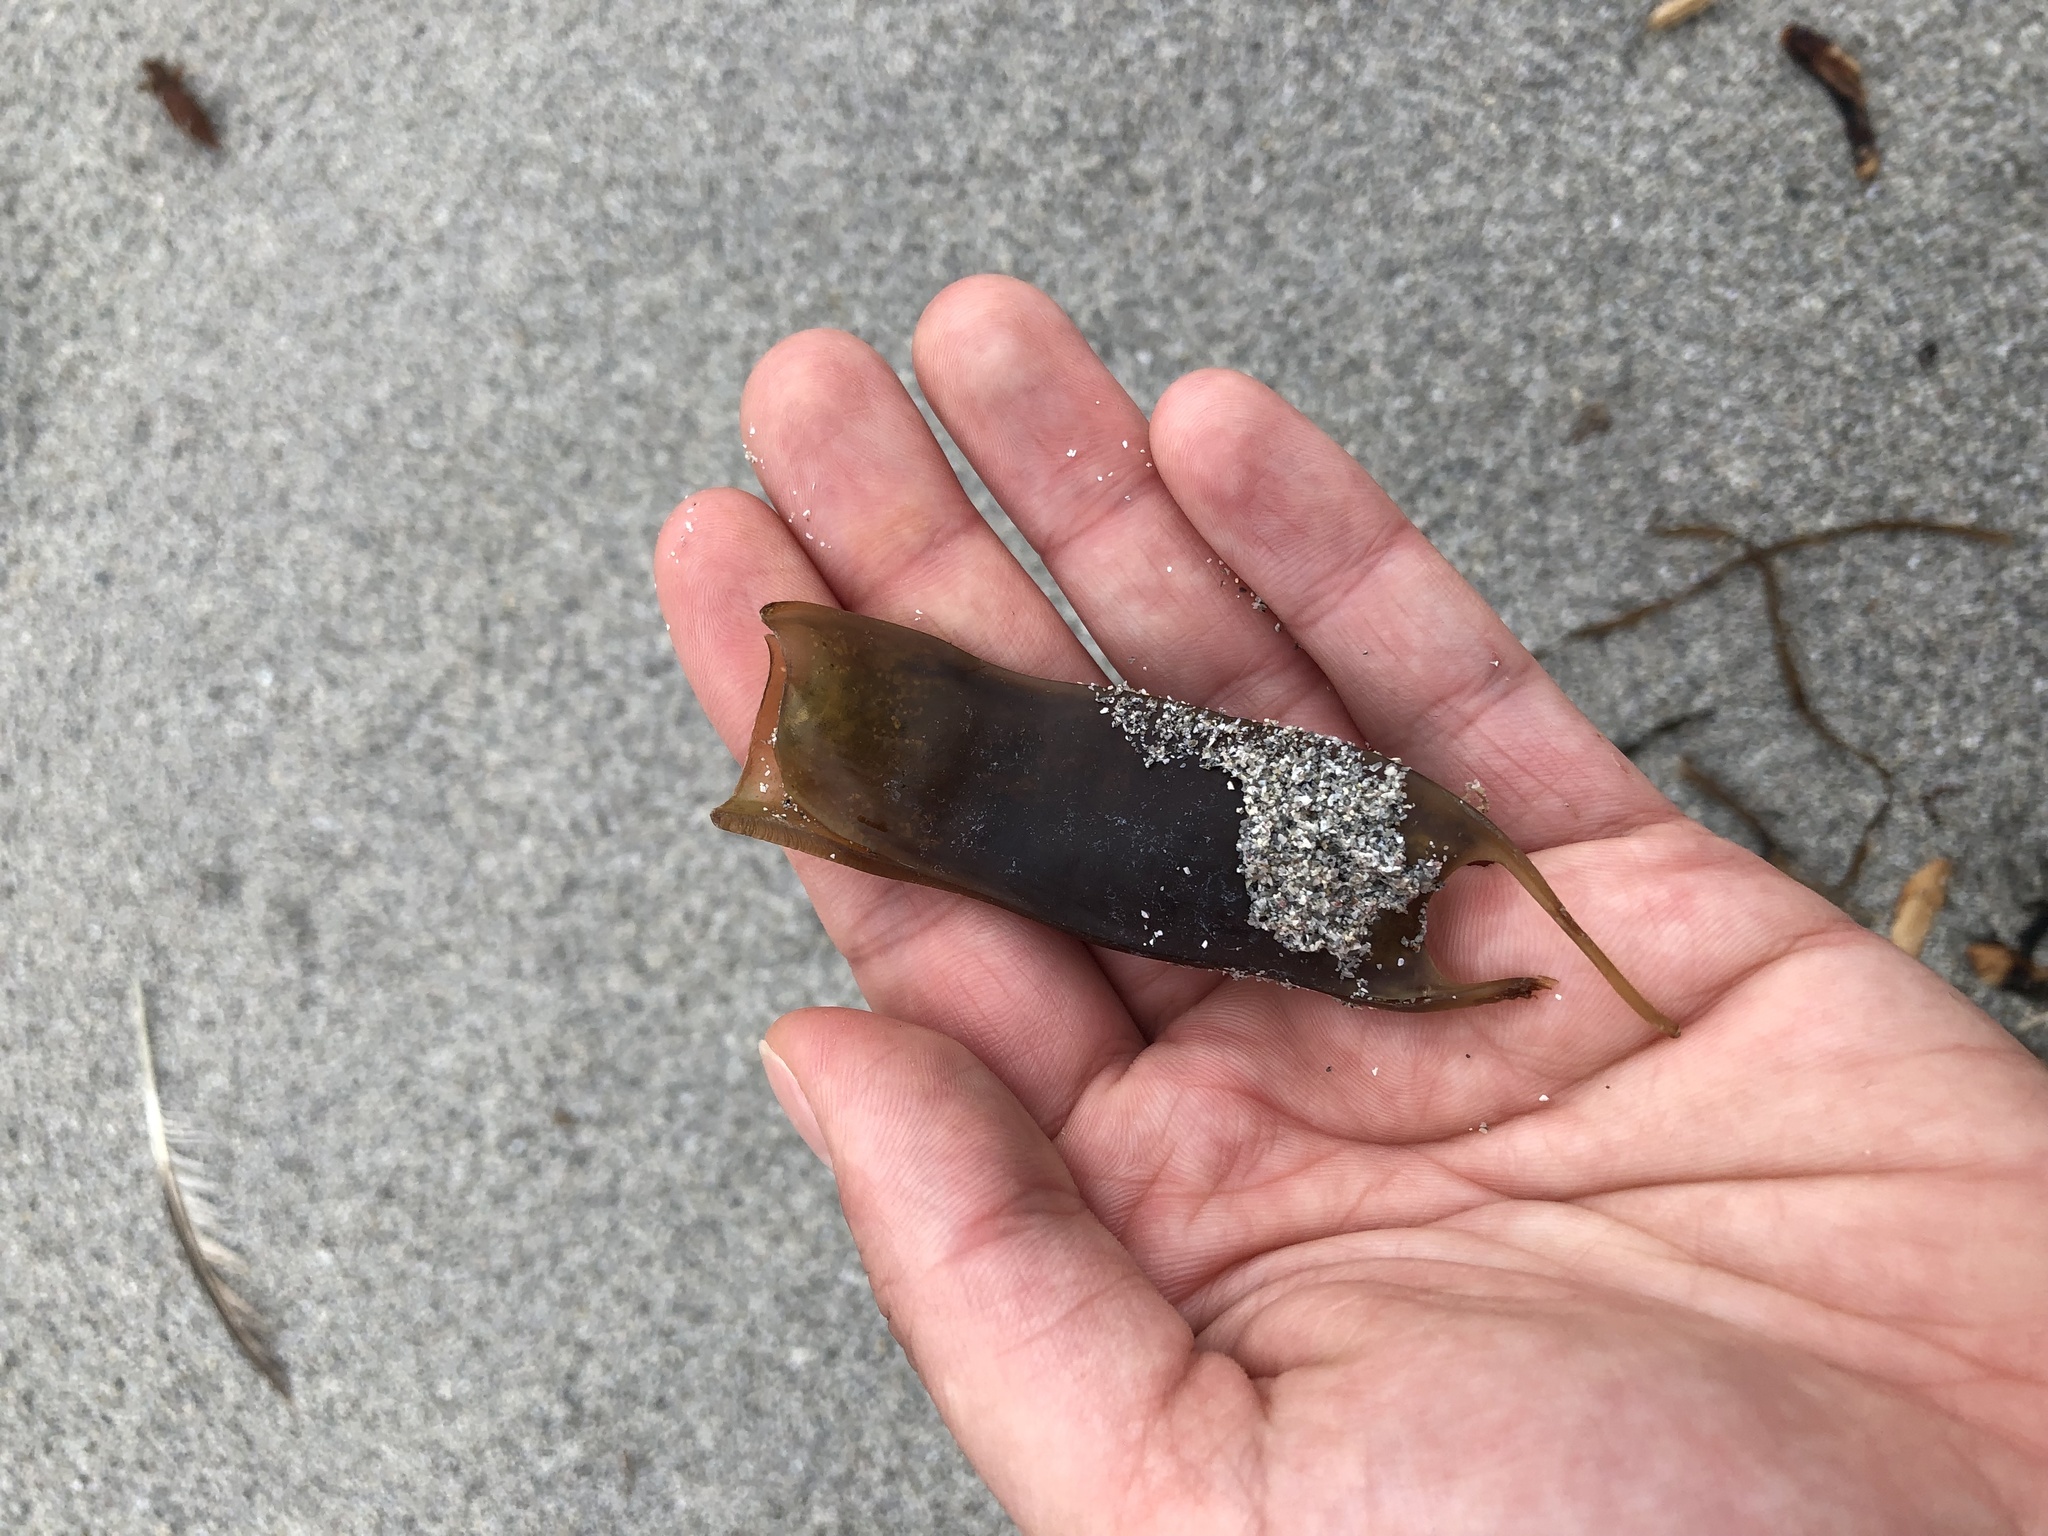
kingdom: Animalia
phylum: Chordata
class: Elasmobranchii
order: Carcharhiniformes
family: Scyliorhinidae
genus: Scyliorhinus
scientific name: Scyliorhinus canicula
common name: Lesser spotted dogfish
